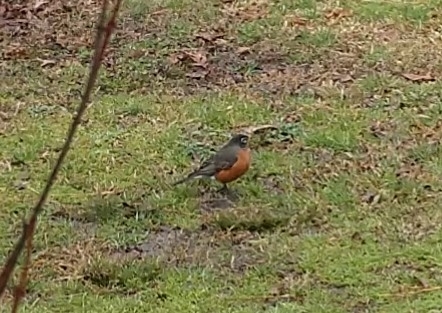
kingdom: Animalia
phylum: Chordata
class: Aves
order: Passeriformes
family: Turdidae
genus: Turdus
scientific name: Turdus migratorius
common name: American robin
